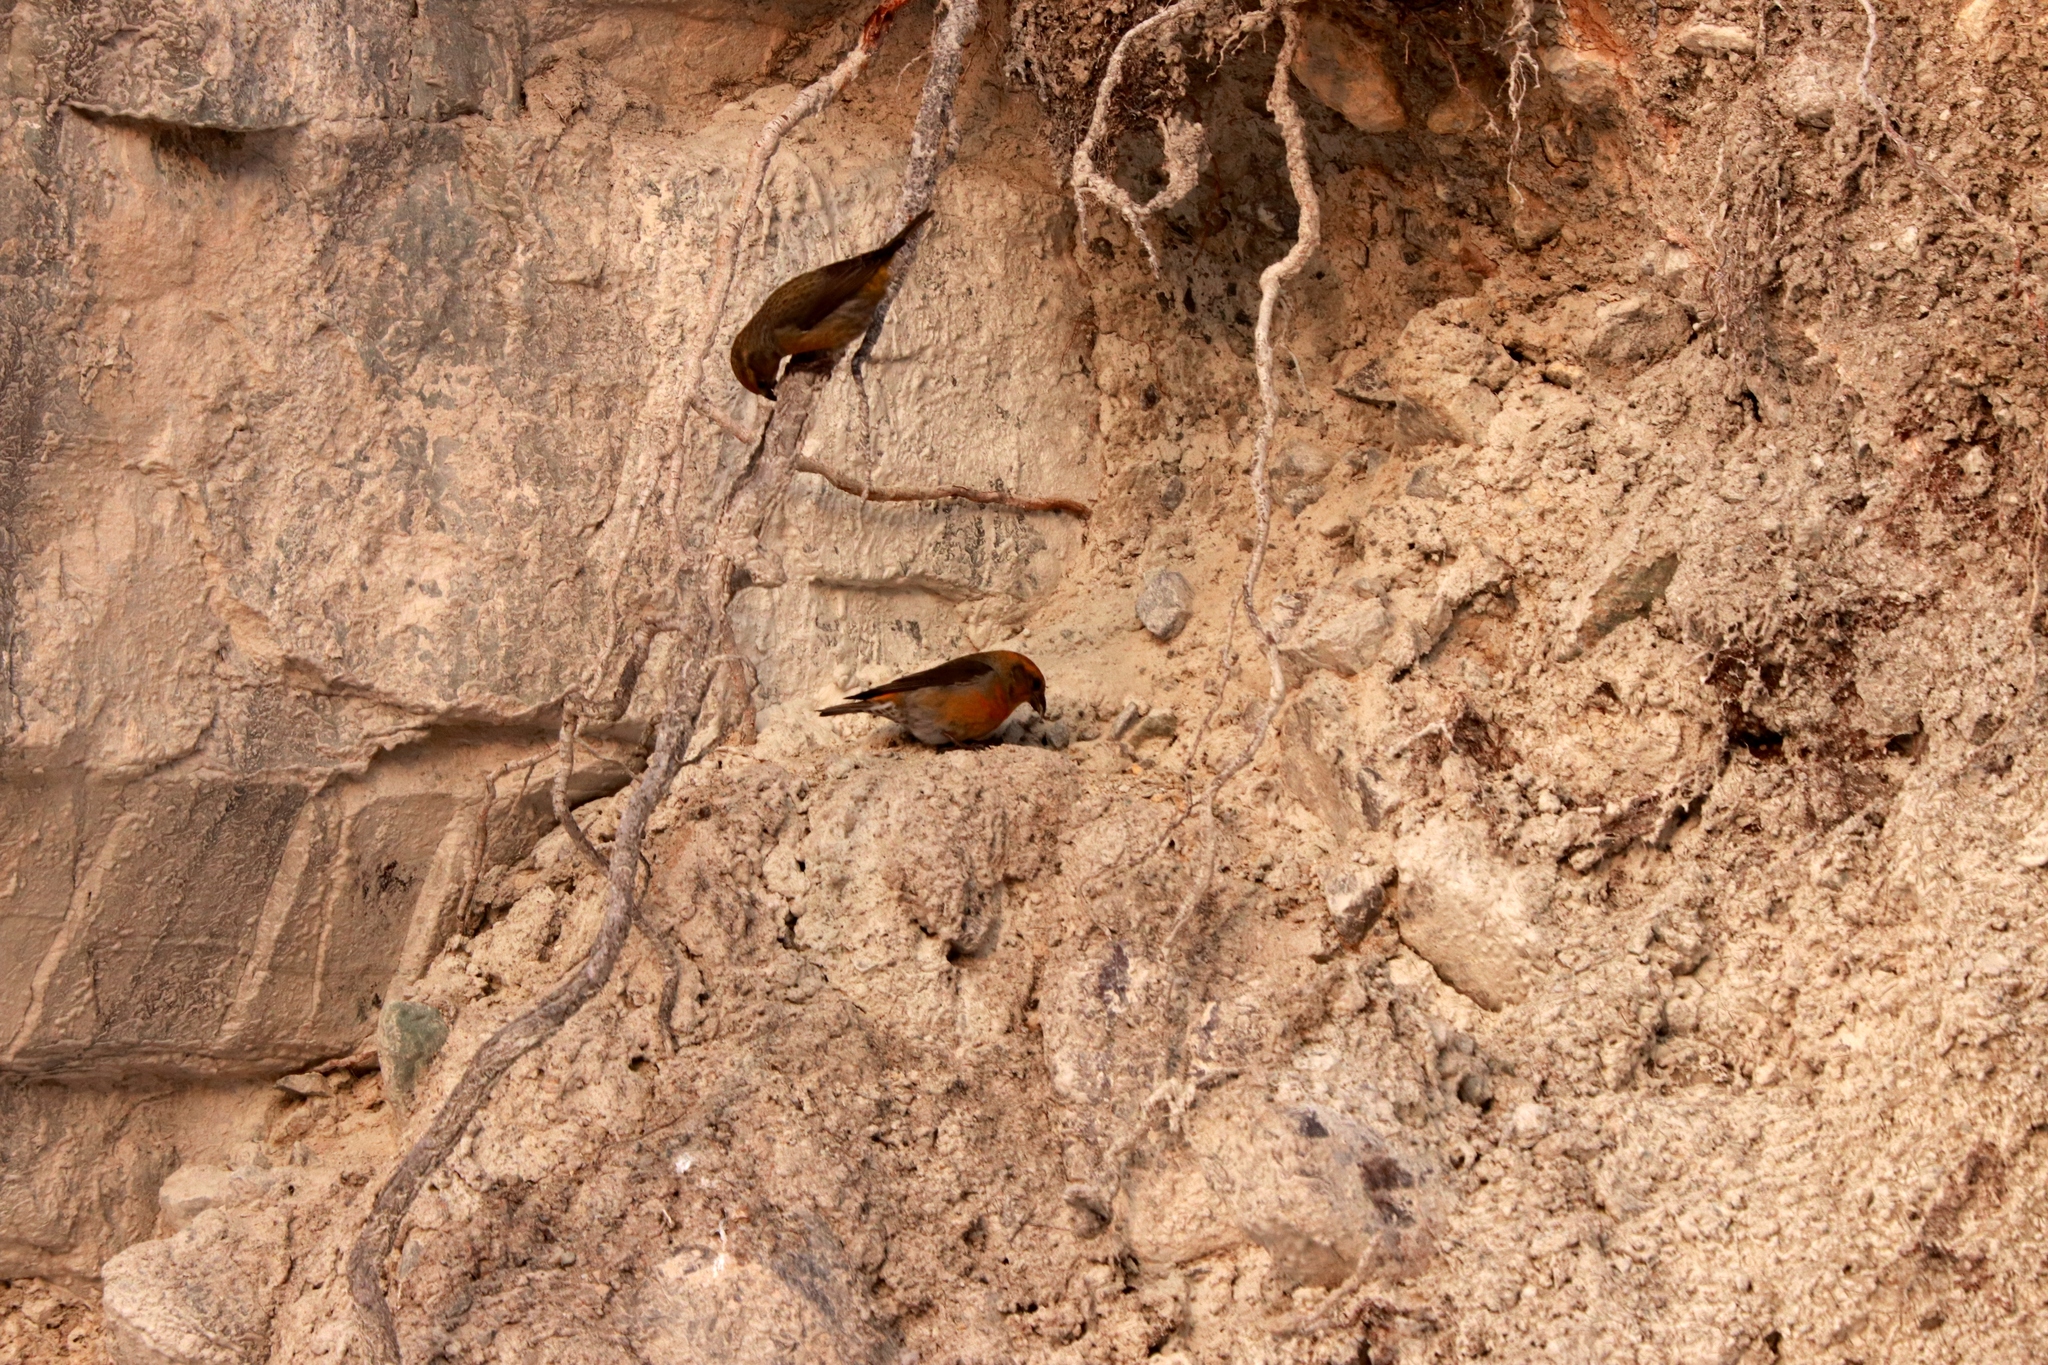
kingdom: Animalia
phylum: Chordata
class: Aves
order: Passeriformes
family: Fringillidae
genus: Loxia
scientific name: Loxia curvirostra
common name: Red crossbill
